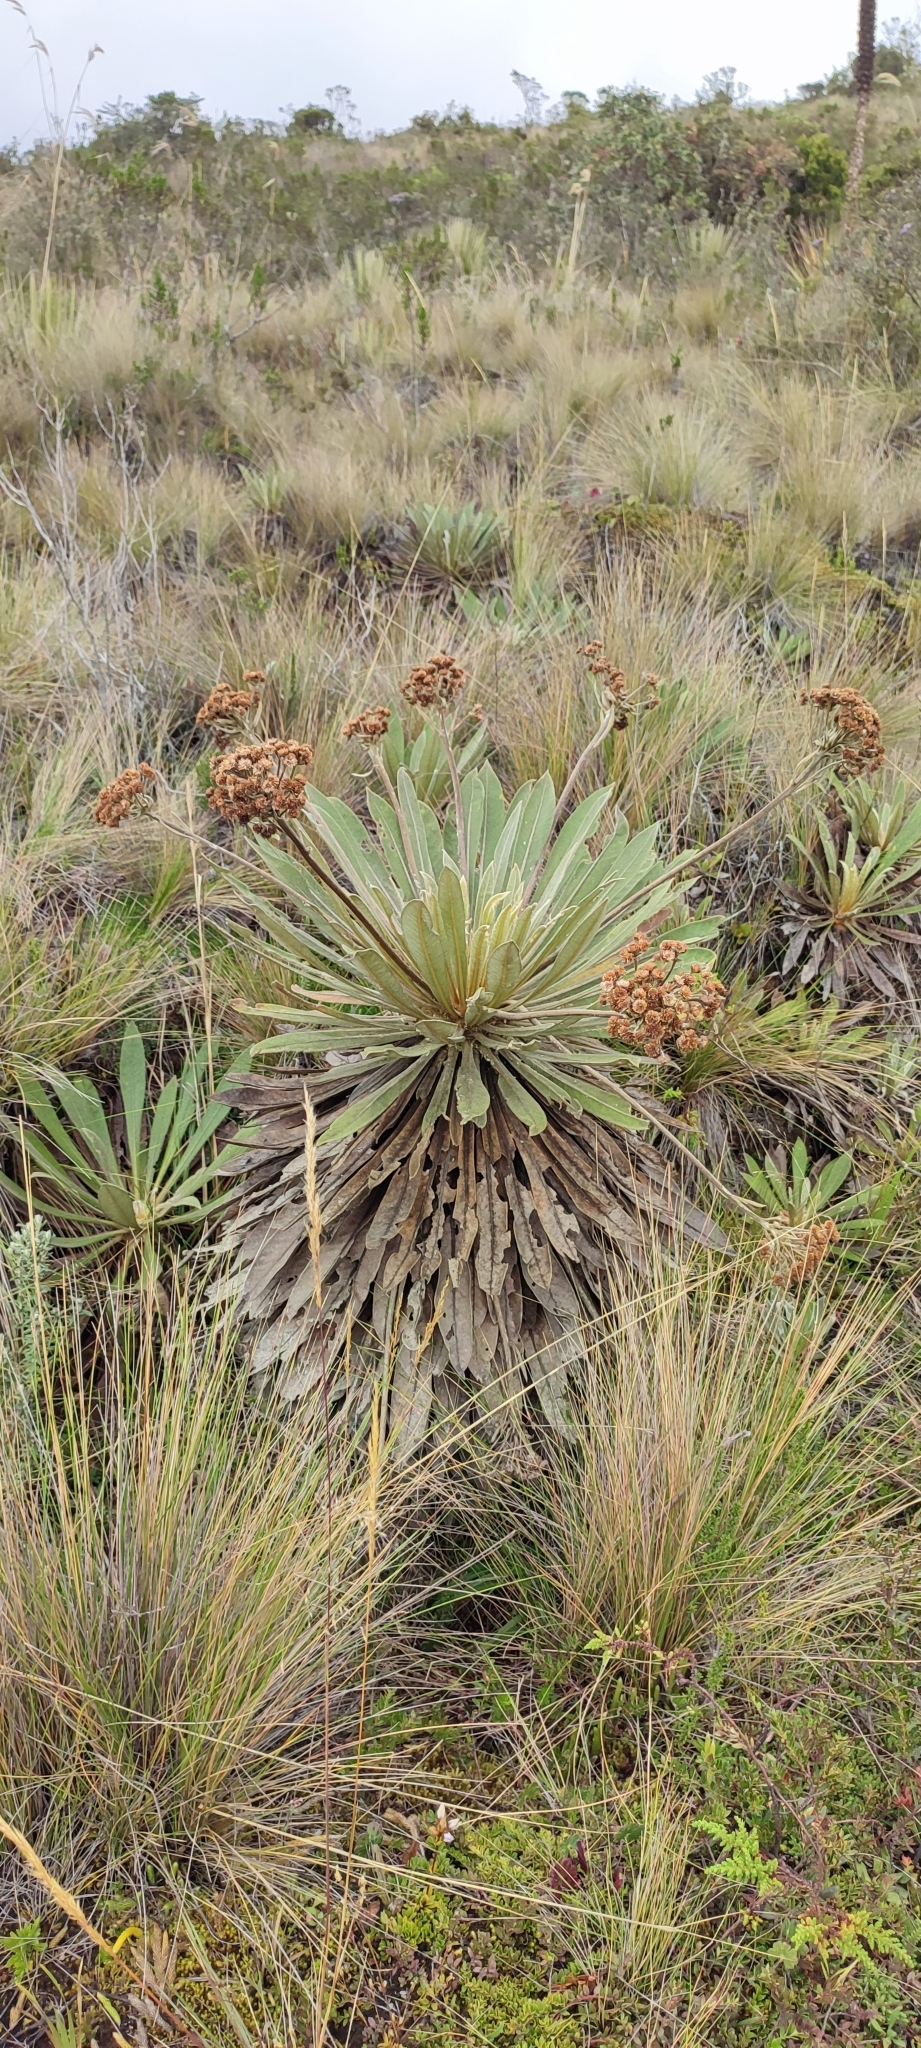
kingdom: Plantae
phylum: Tracheophyta
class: Magnoliopsida
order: Asterales
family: Asteraceae
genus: Espeletia
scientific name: Espeletia corymbosa
